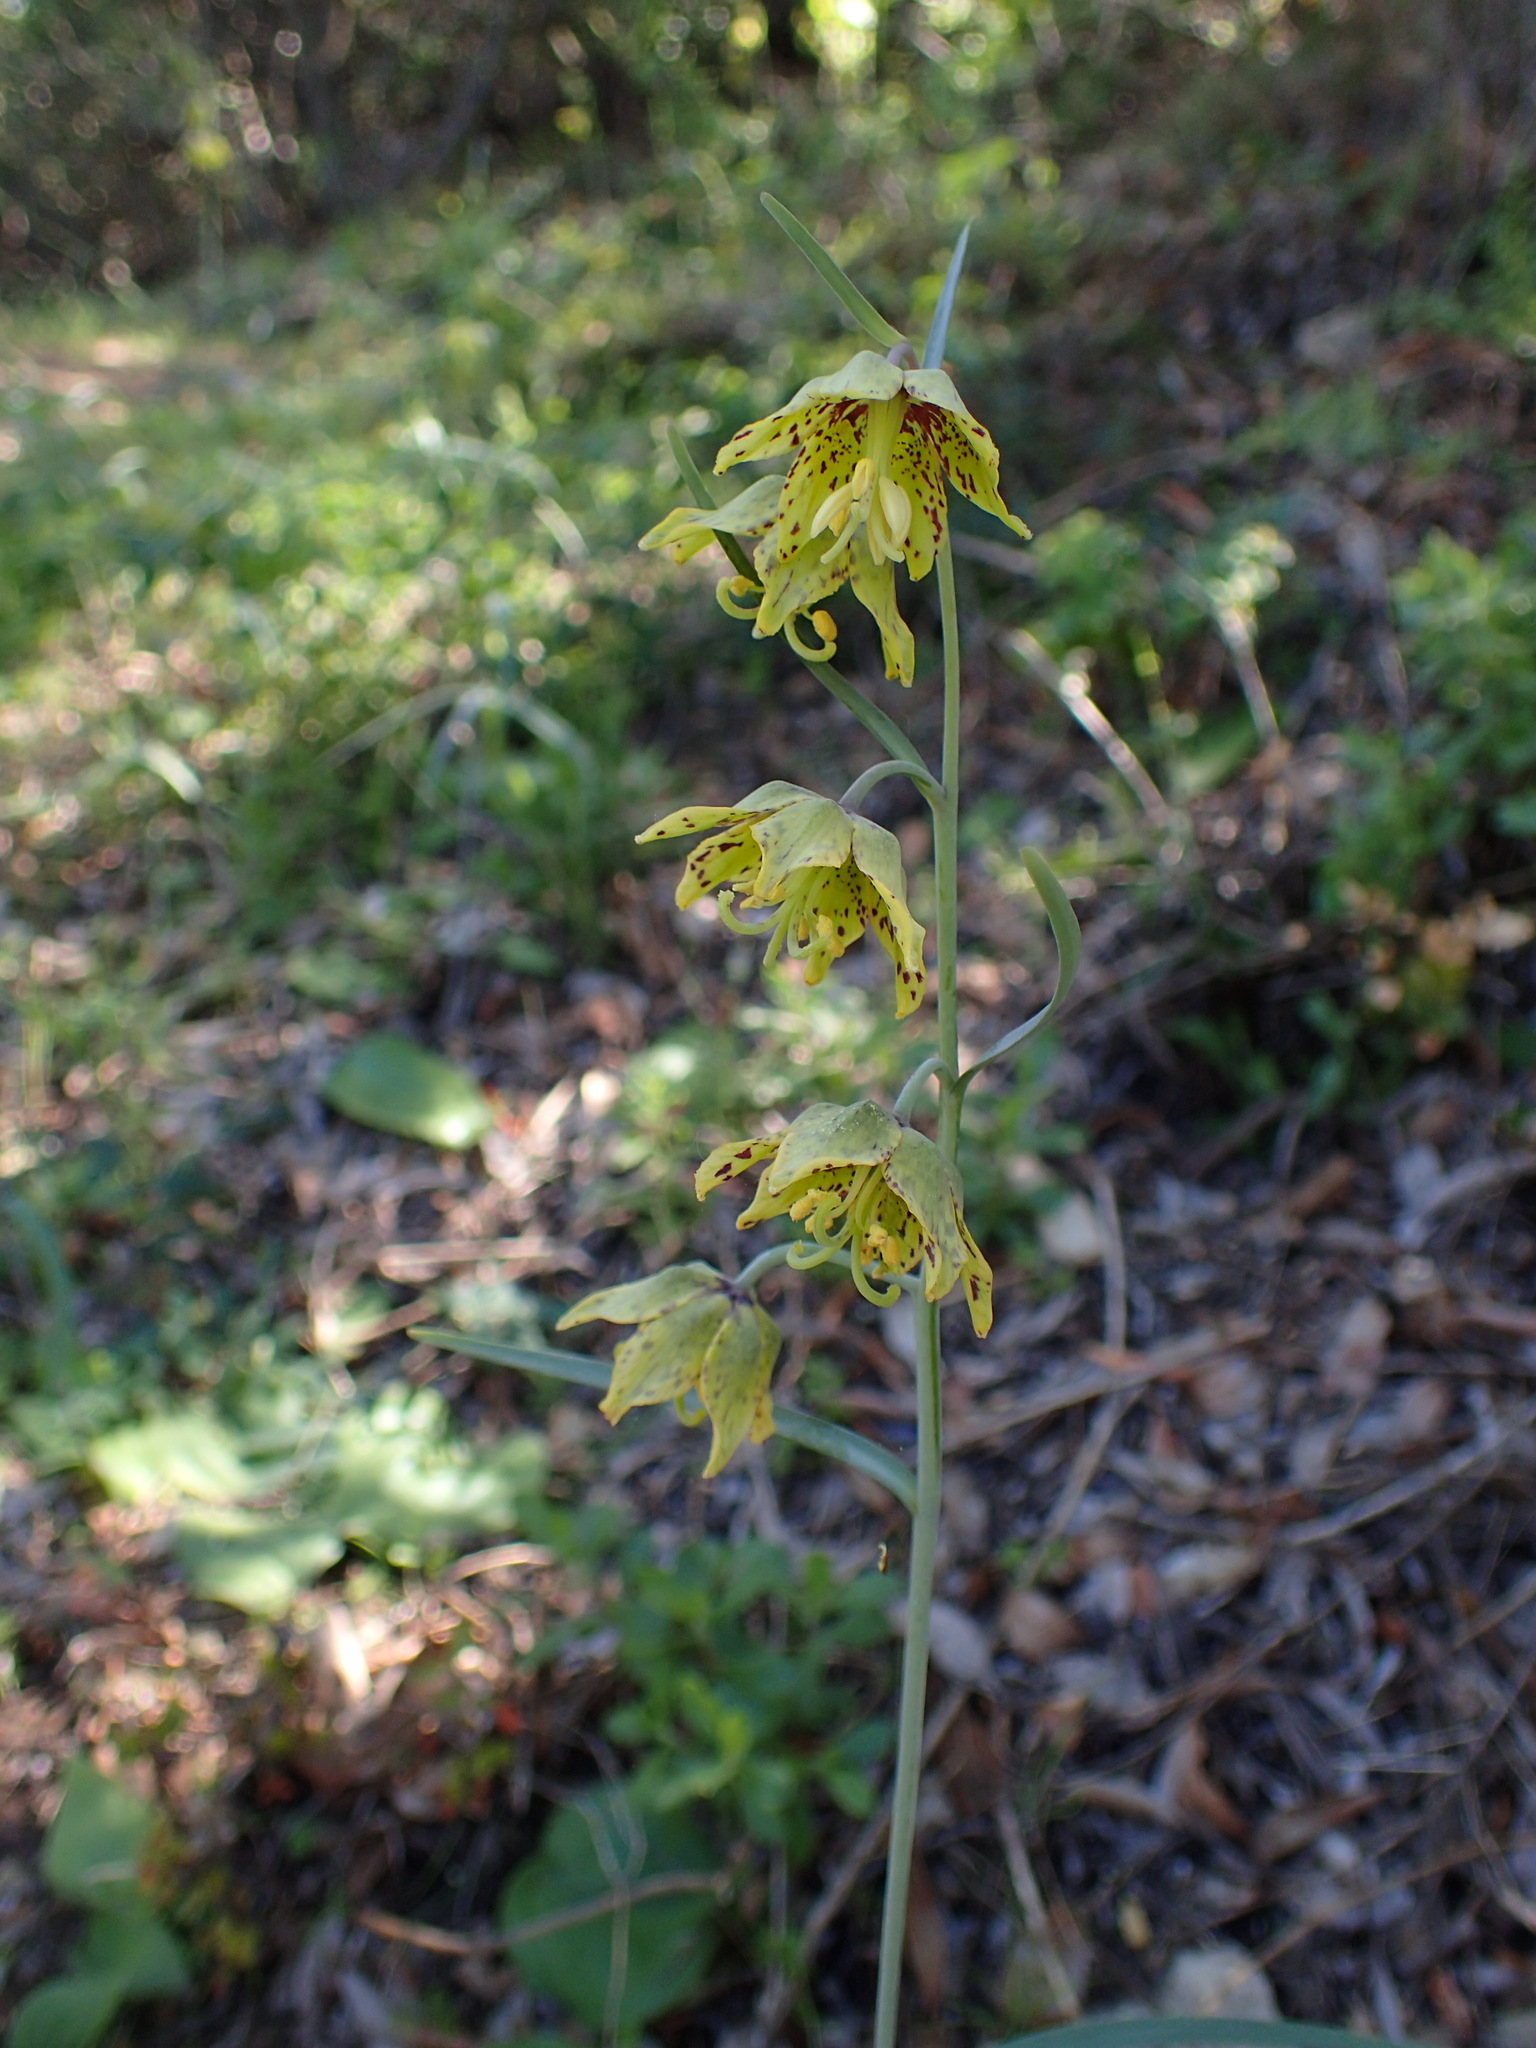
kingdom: Plantae
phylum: Tracheophyta
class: Liliopsida
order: Liliales
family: Liliaceae
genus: Fritillaria
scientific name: Fritillaria ojaiensis
